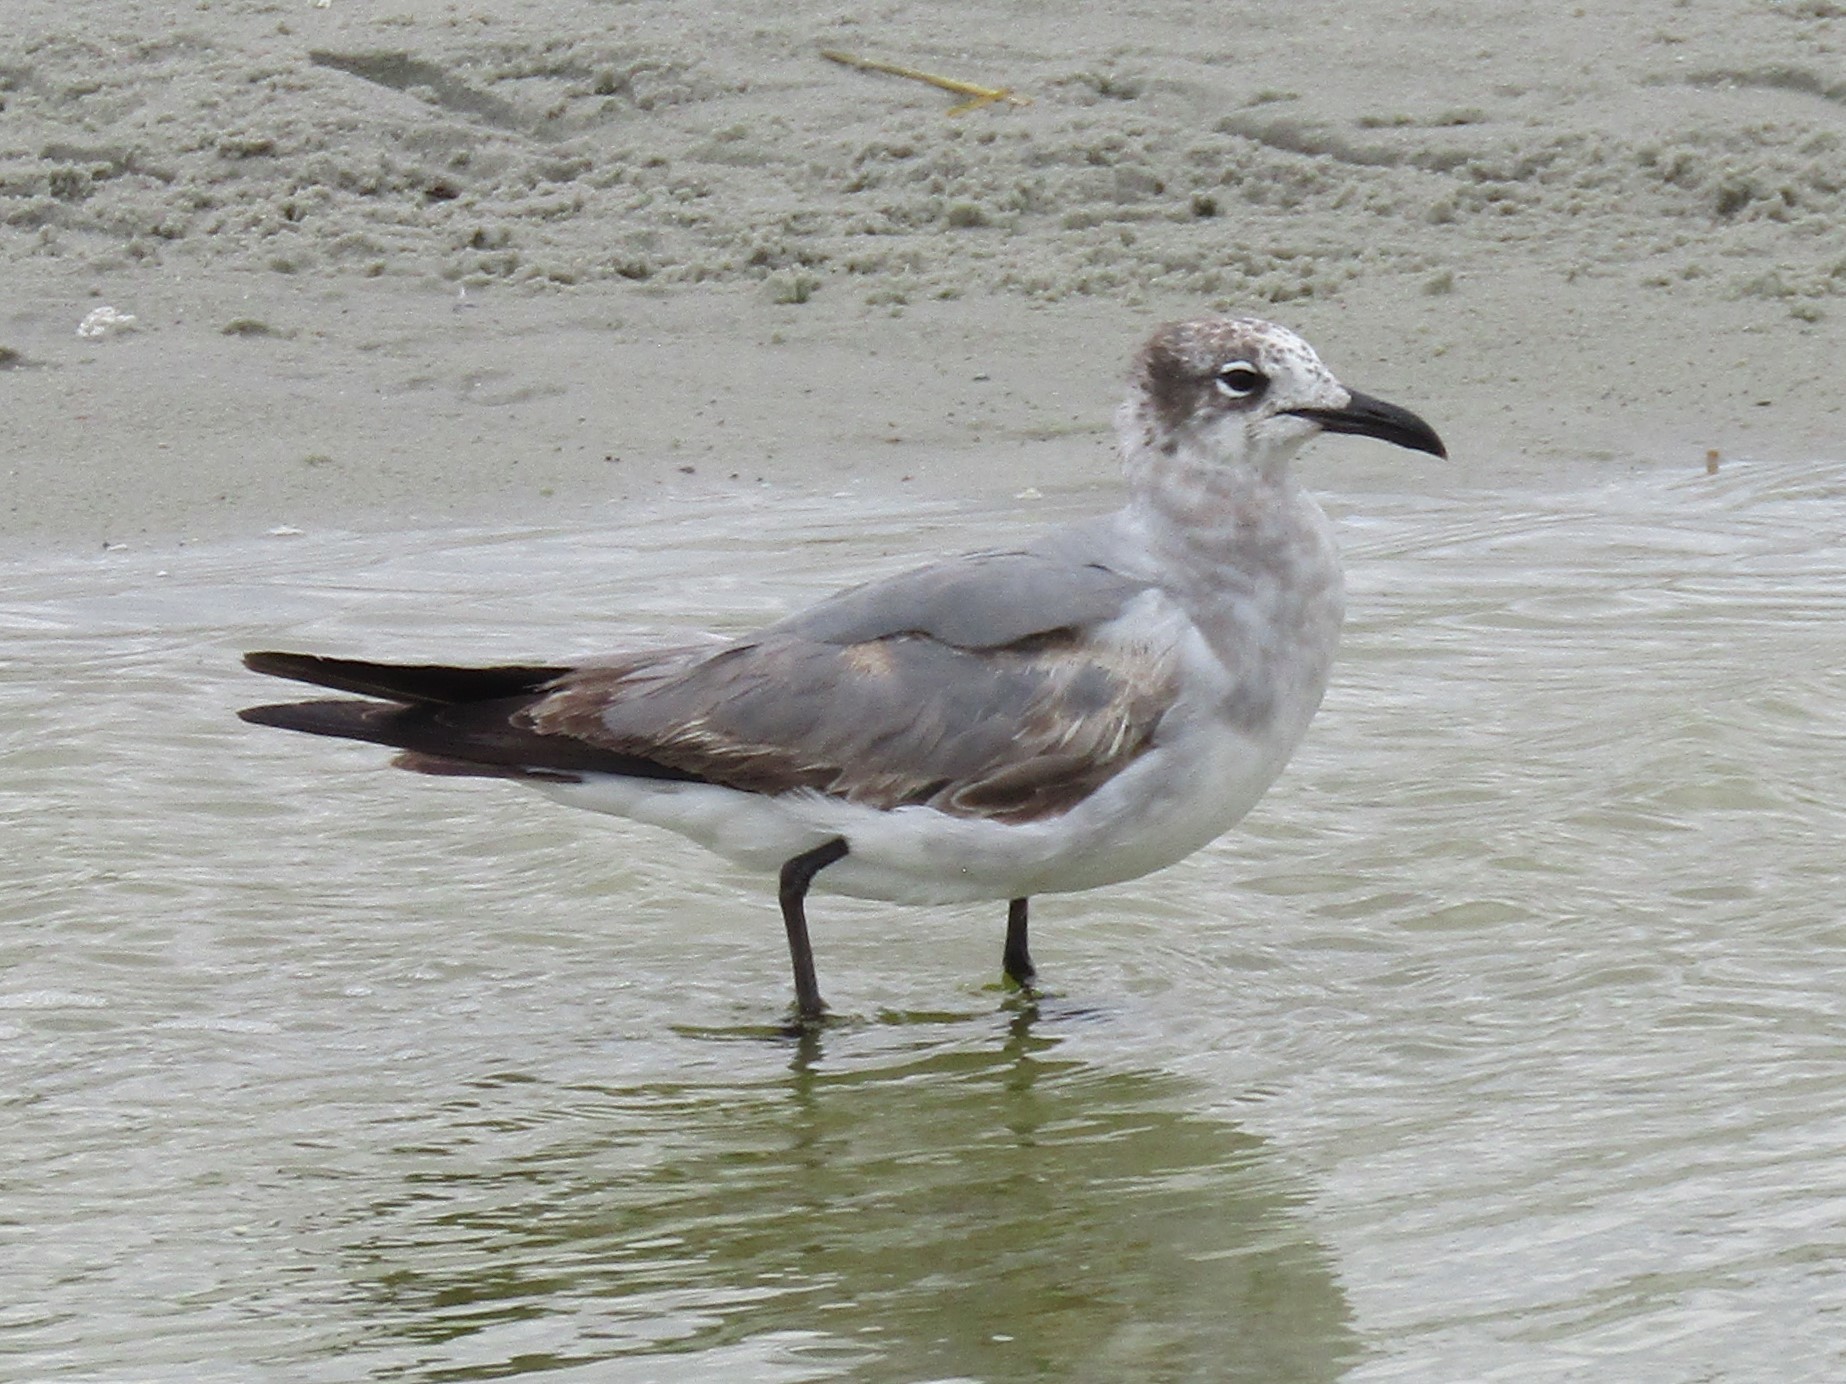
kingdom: Animalia
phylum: Chordata
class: Aves
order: Charadriiformes
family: Laridae
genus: Leucophaeus
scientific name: Leucophaeus atricilla
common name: Laughing gull
